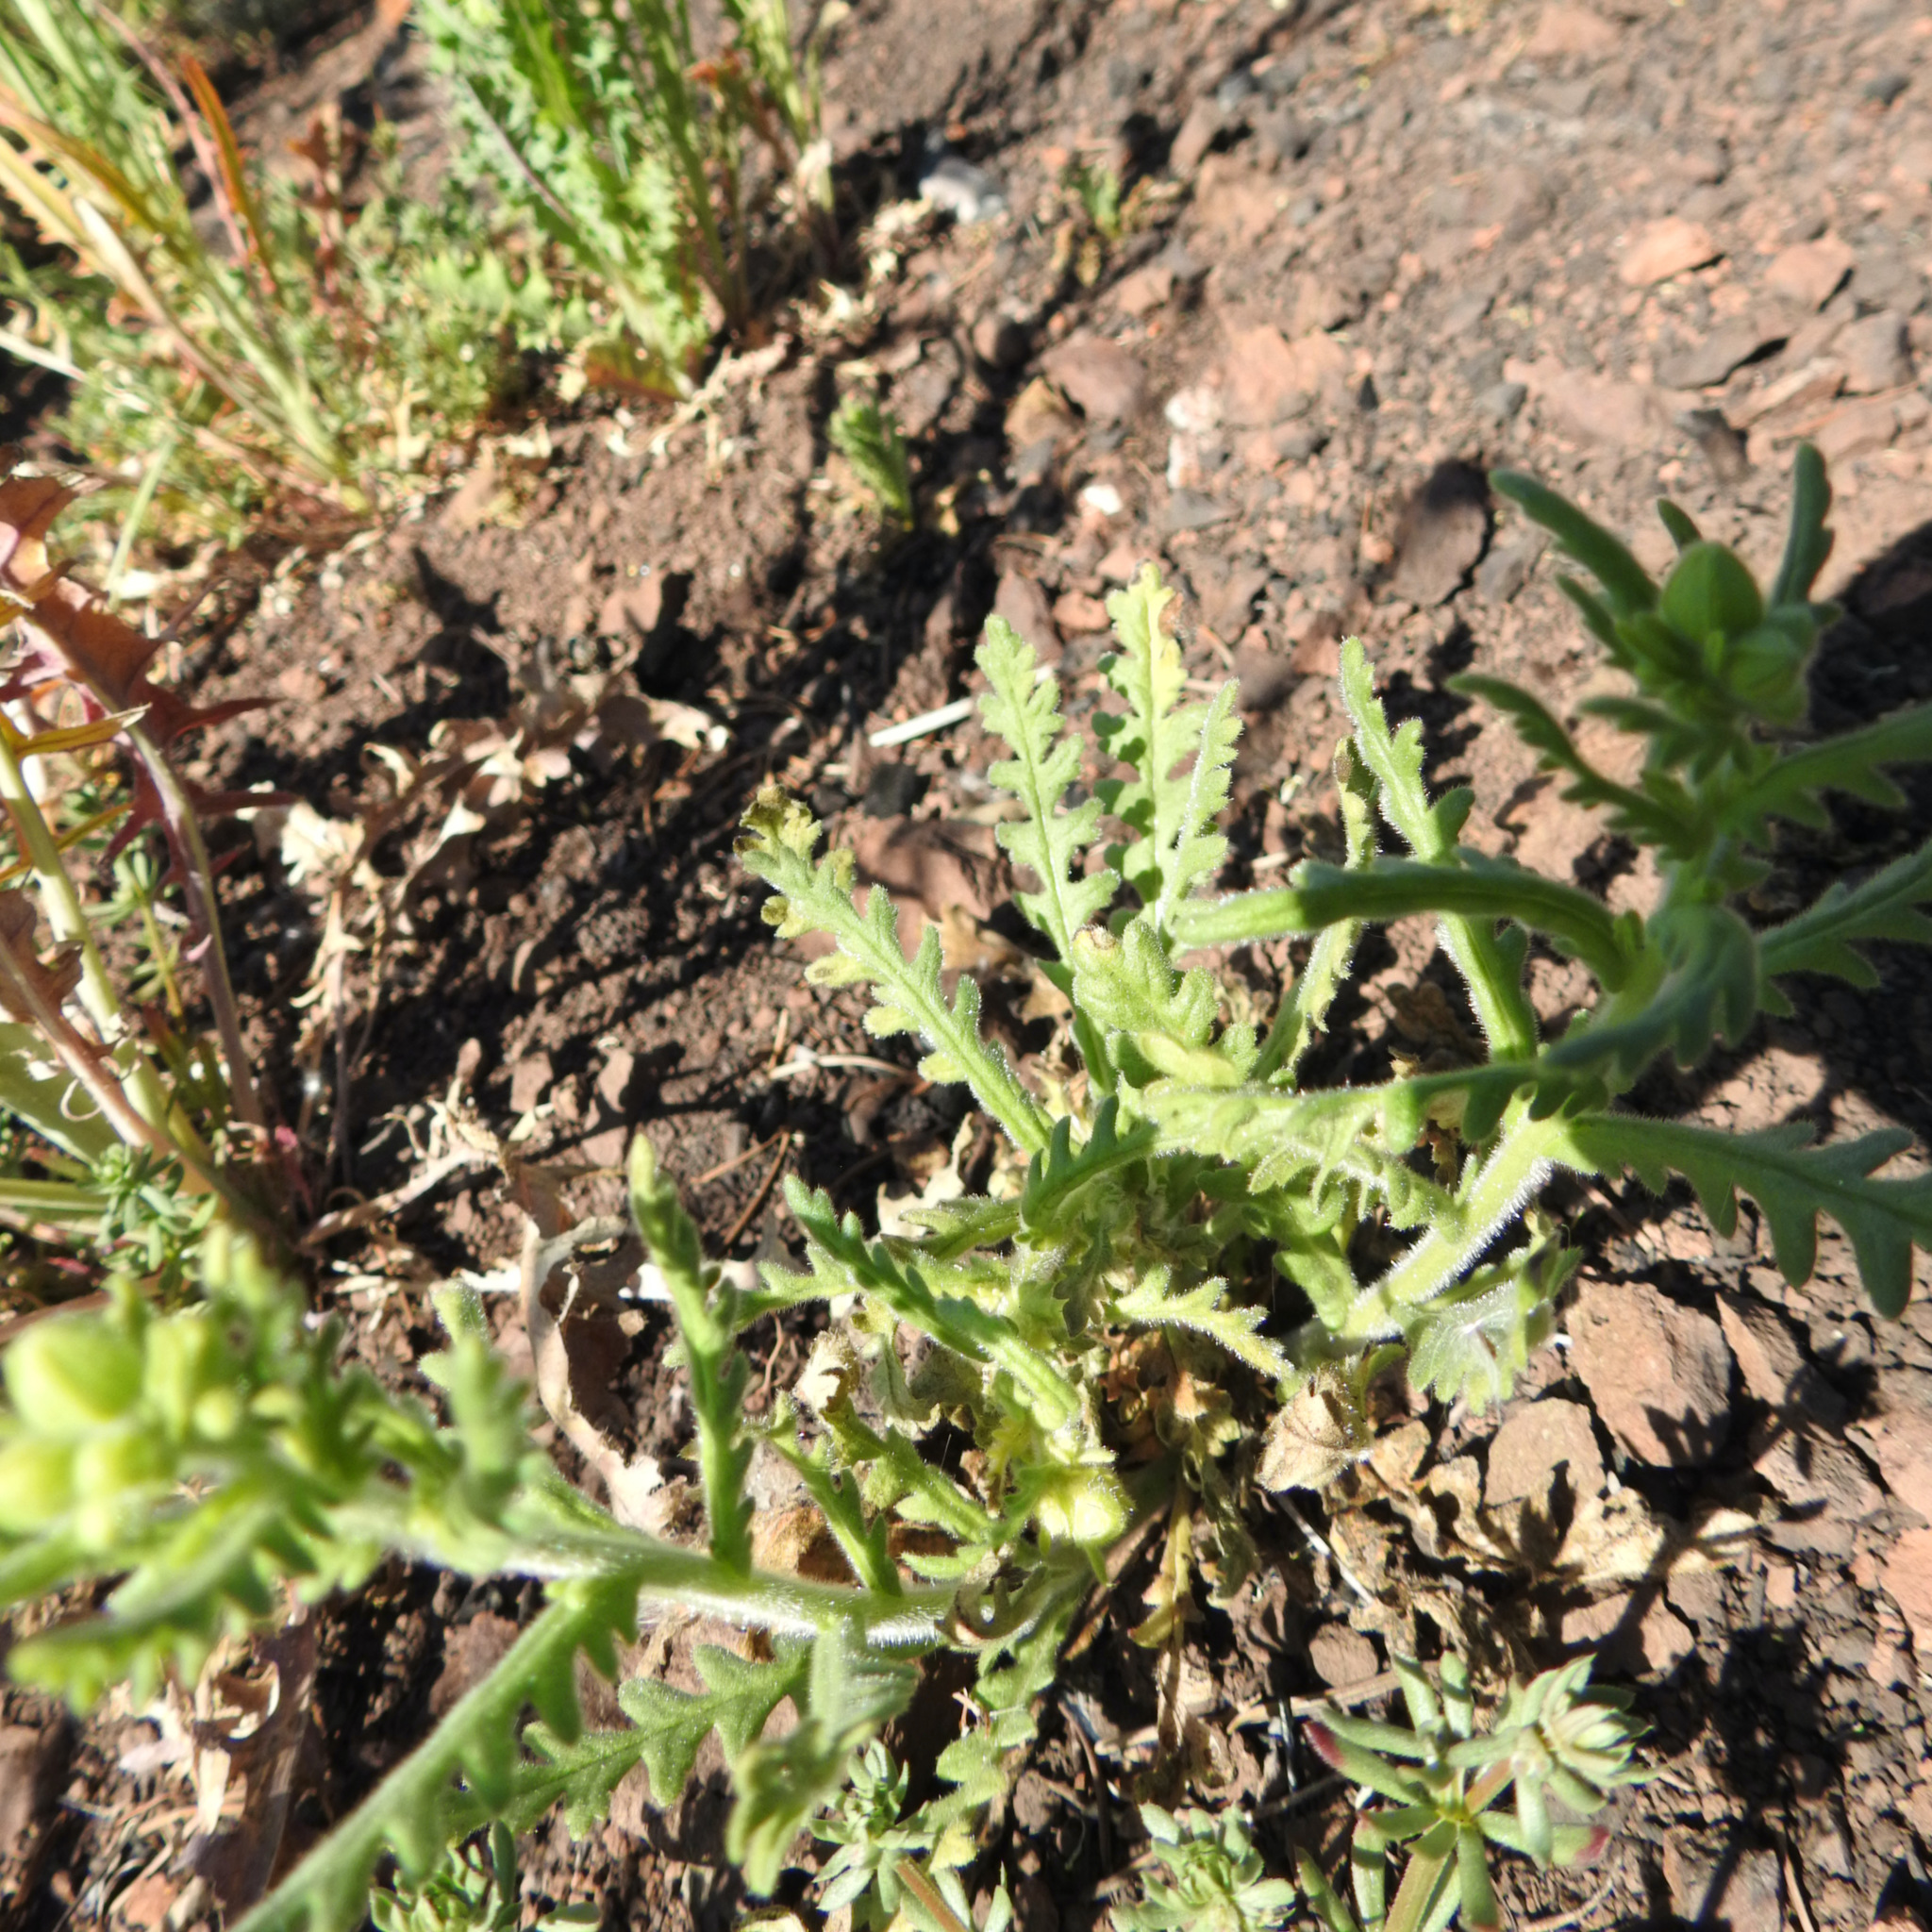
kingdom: Plantae
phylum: Tracheophyta
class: Magnoliopsida
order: Boraginales
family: Hydrophyllaceae
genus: Emmenanthe
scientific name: Emmenanthe penduliflora
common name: Whispering-bells
